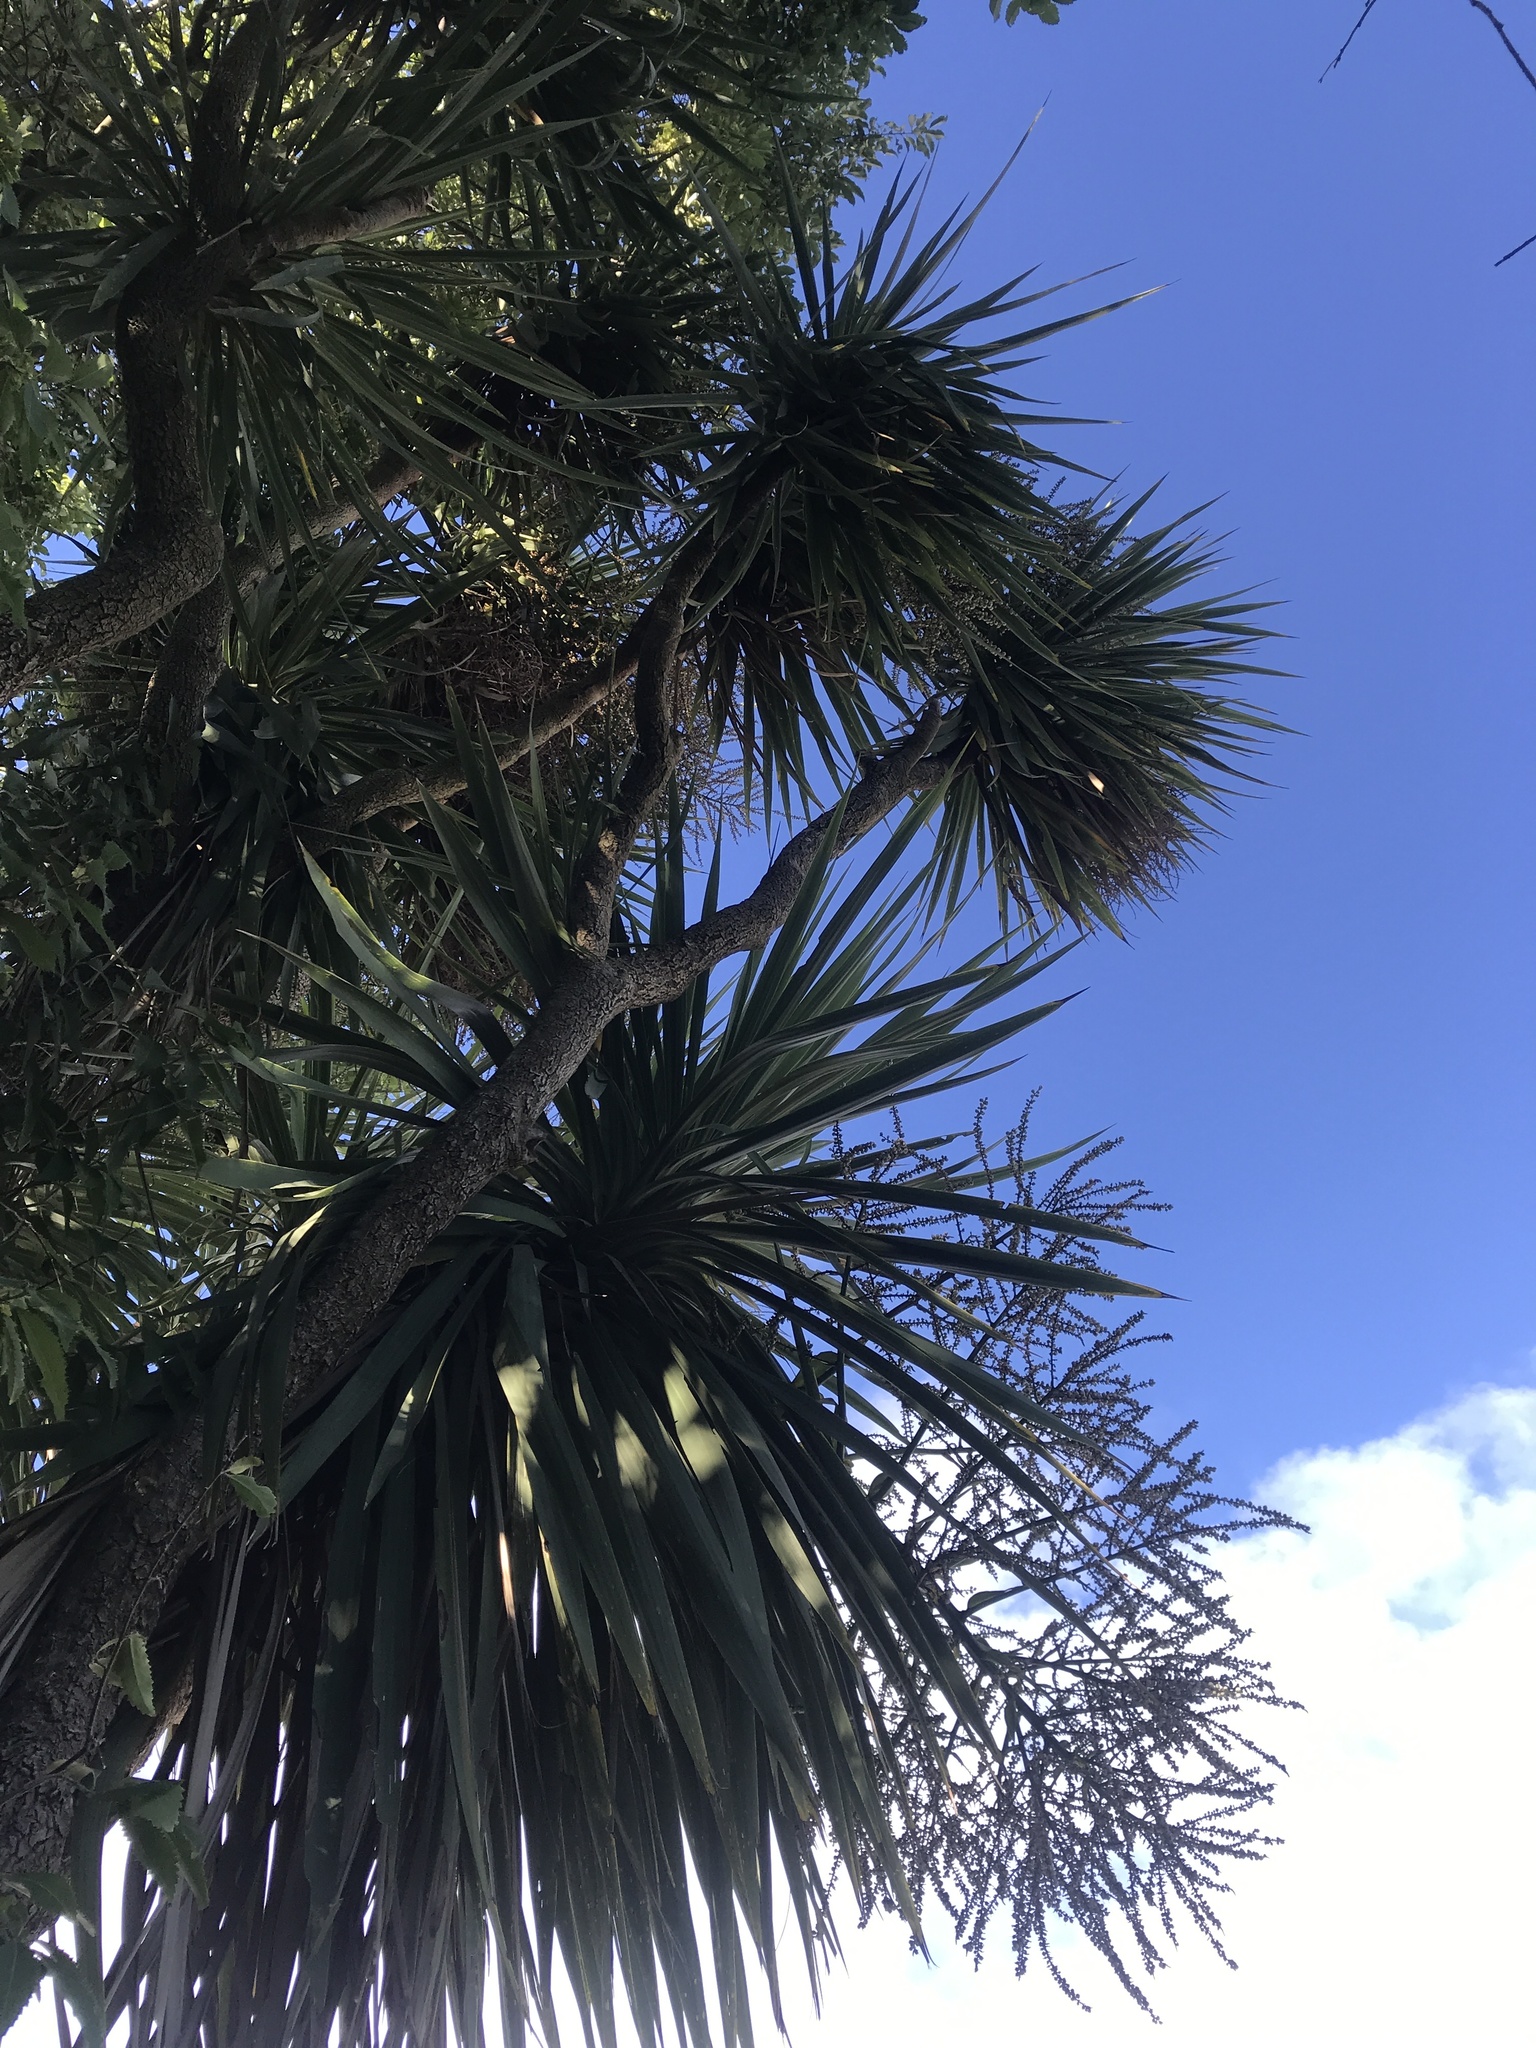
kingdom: Plantae
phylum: Tracheophyta
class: Liliopsida
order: Asparagales
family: Asparagaceae
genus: Cordyline
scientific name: Cordyline australis
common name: Cabbage-palm
